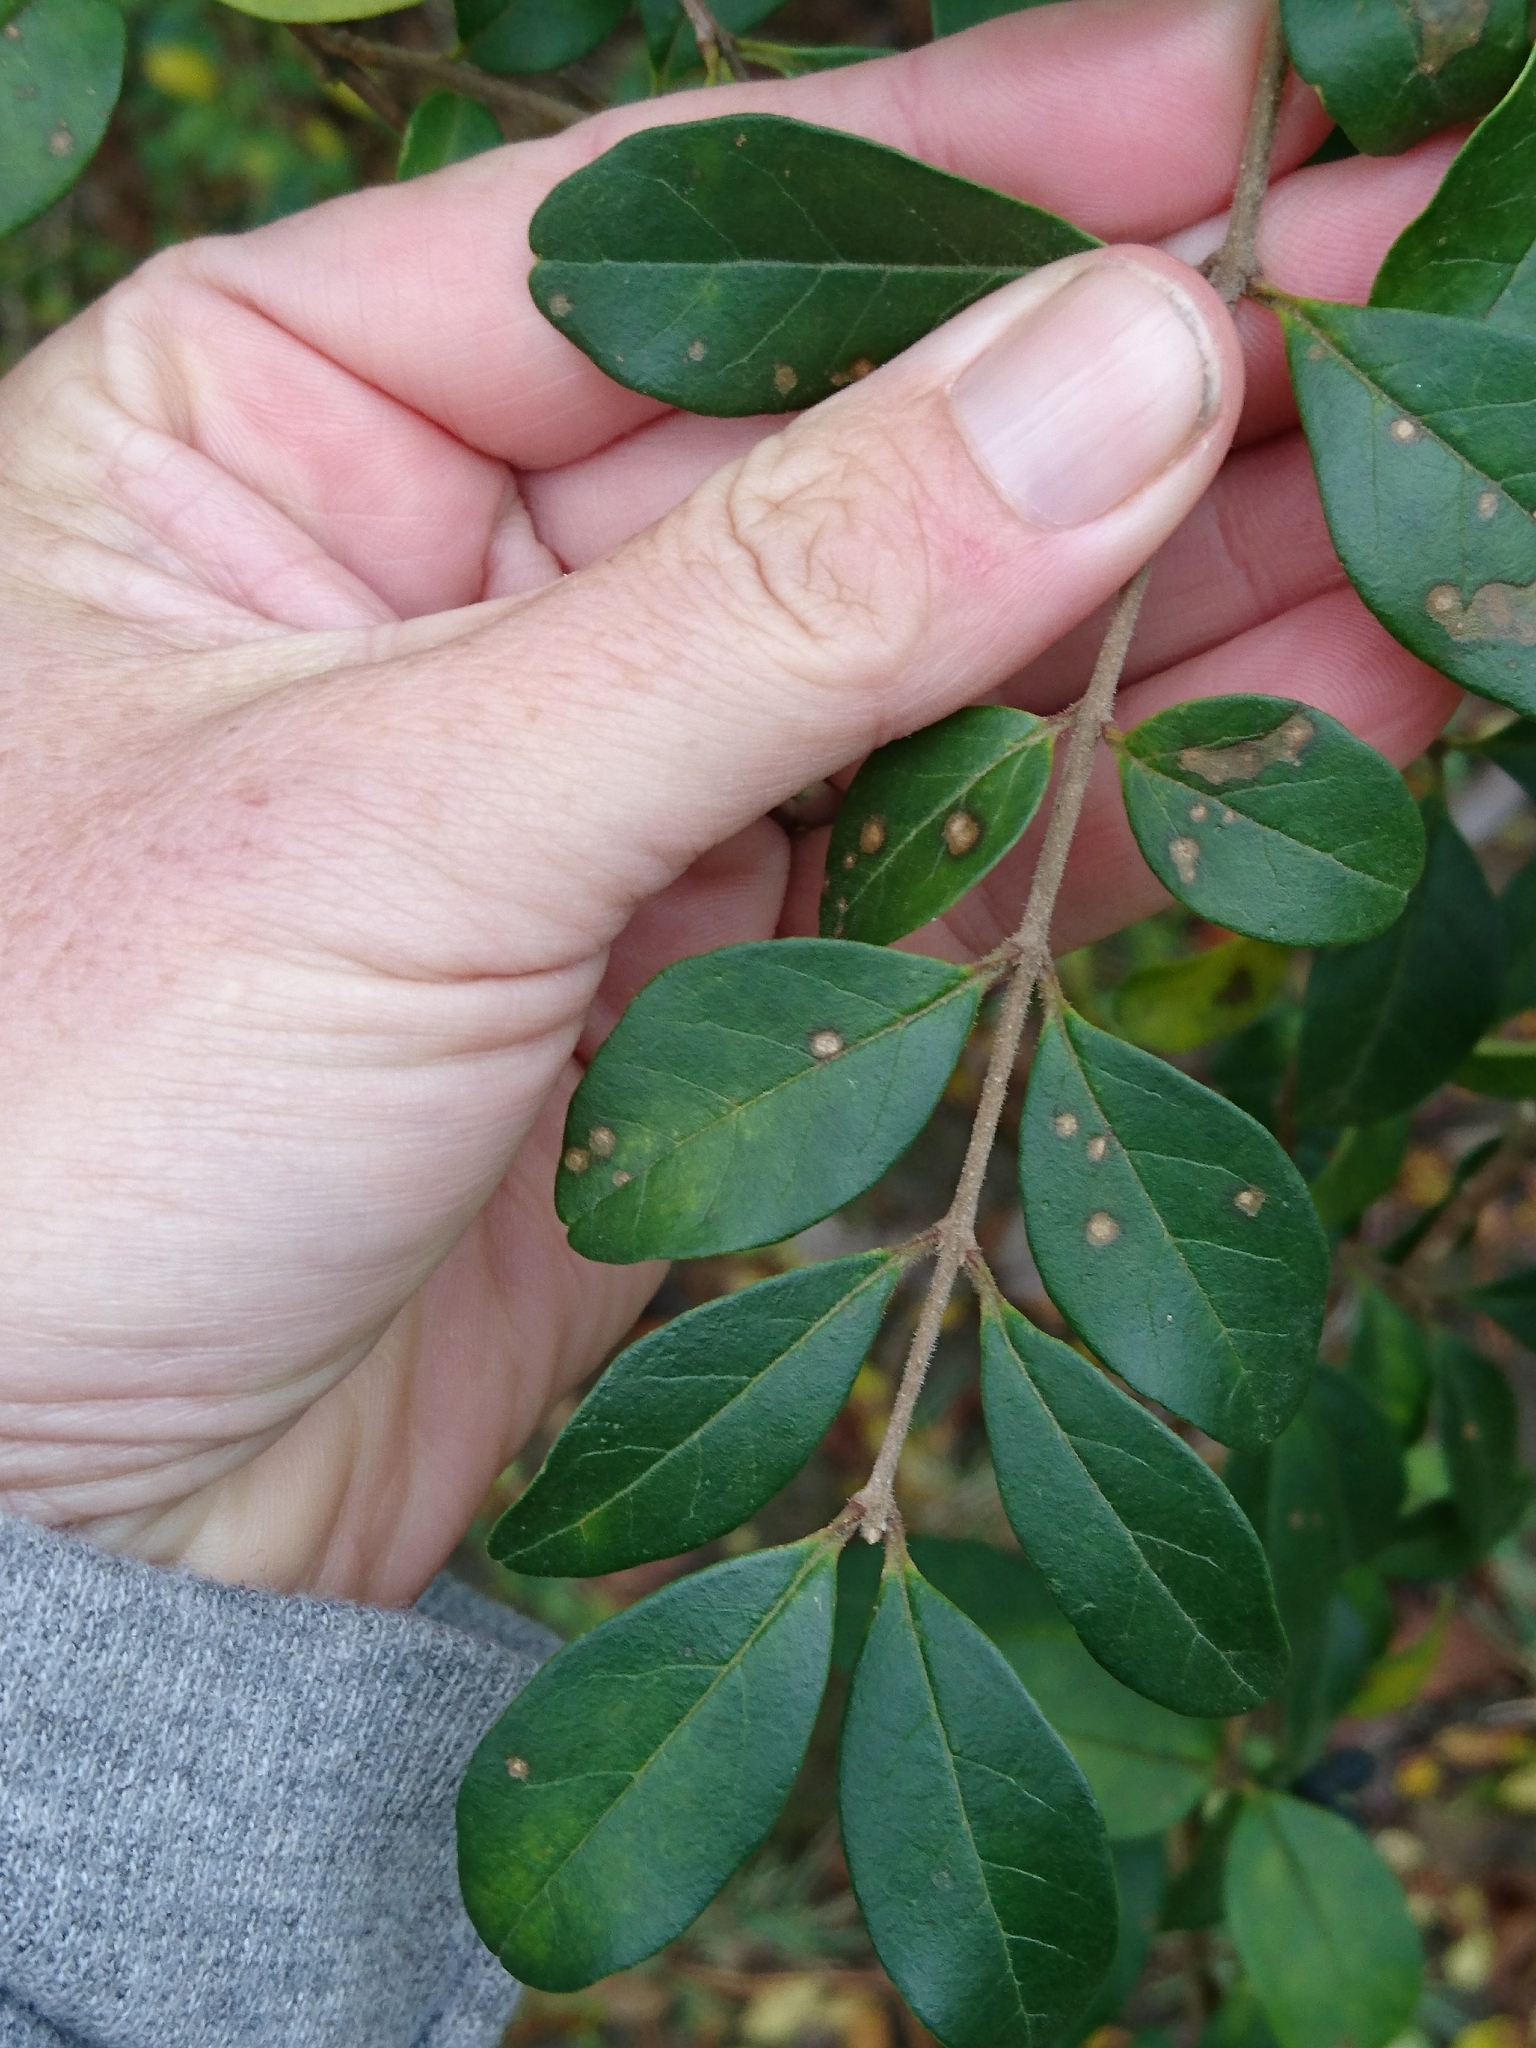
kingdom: Plantae
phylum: Tracheophyta
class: Magnoliopsida
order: Lamiales
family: Oleaceae
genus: Ligustrum
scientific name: Ligustrum sinense
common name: Chinese privet
